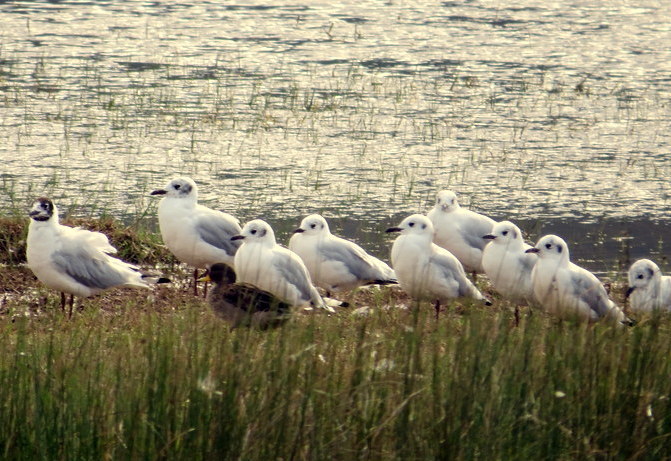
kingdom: Animalia
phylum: Chordata
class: Aves
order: Charadriiformes
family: Laridae
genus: Chroicocephalus
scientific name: Chroicocephalus serranus
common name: Andean gull
